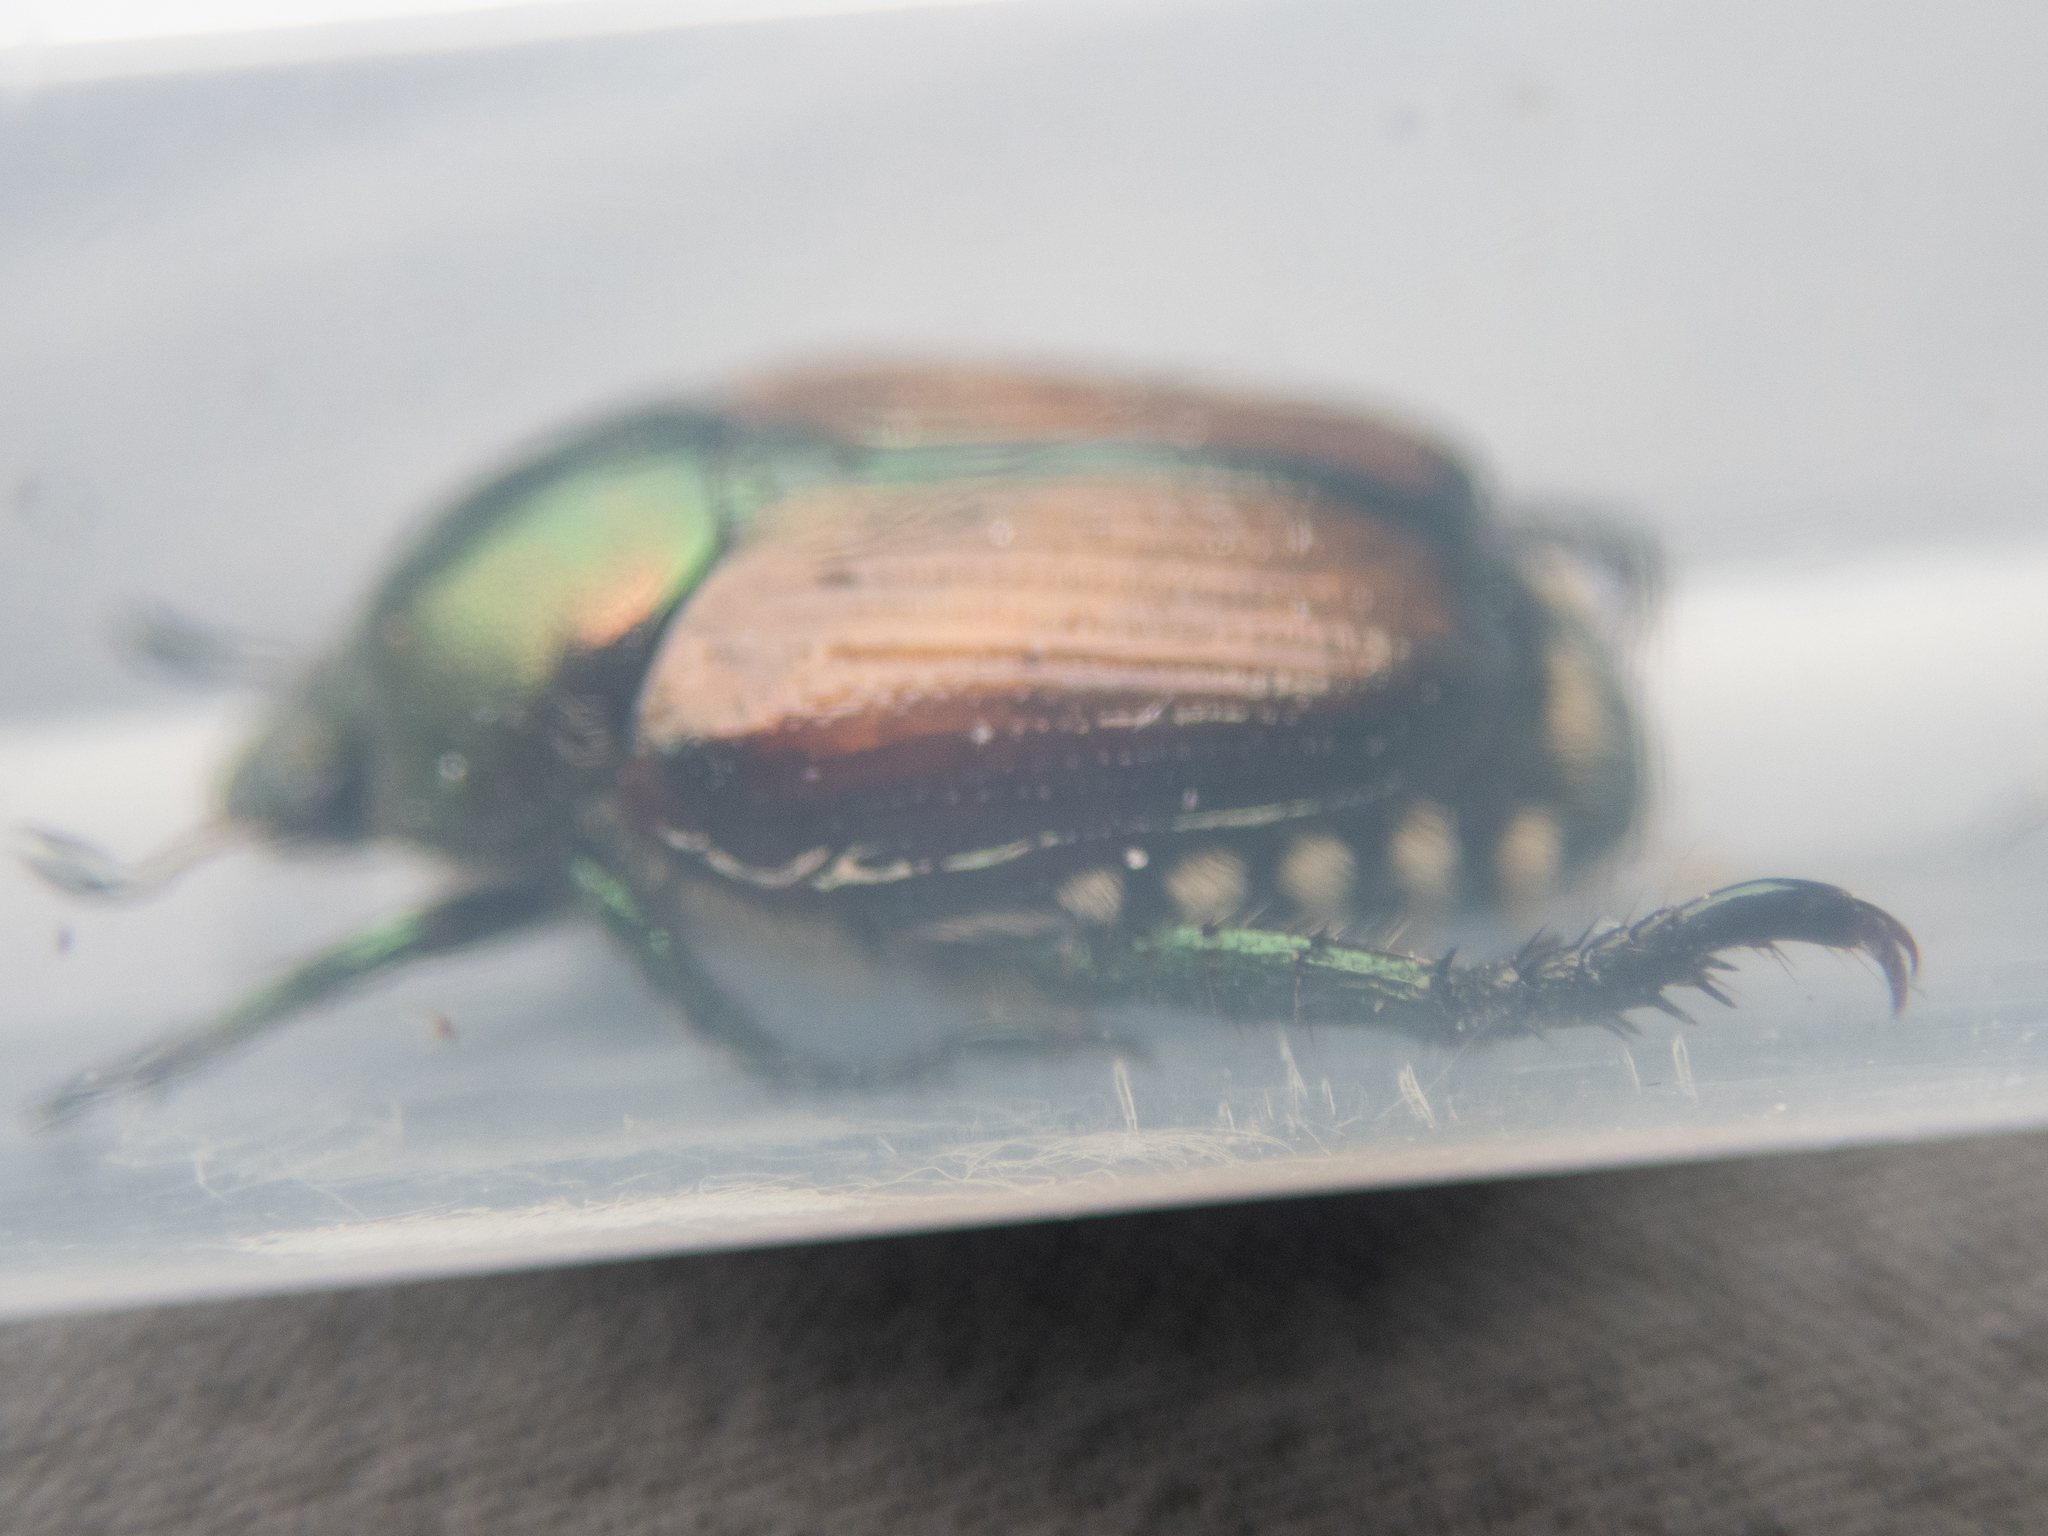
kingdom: Animalia
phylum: Arthropoda
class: Insecta
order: Coleoptera
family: Scarabaeidae
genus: Popillia
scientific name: Popillia japonica
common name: Japanese beetle
